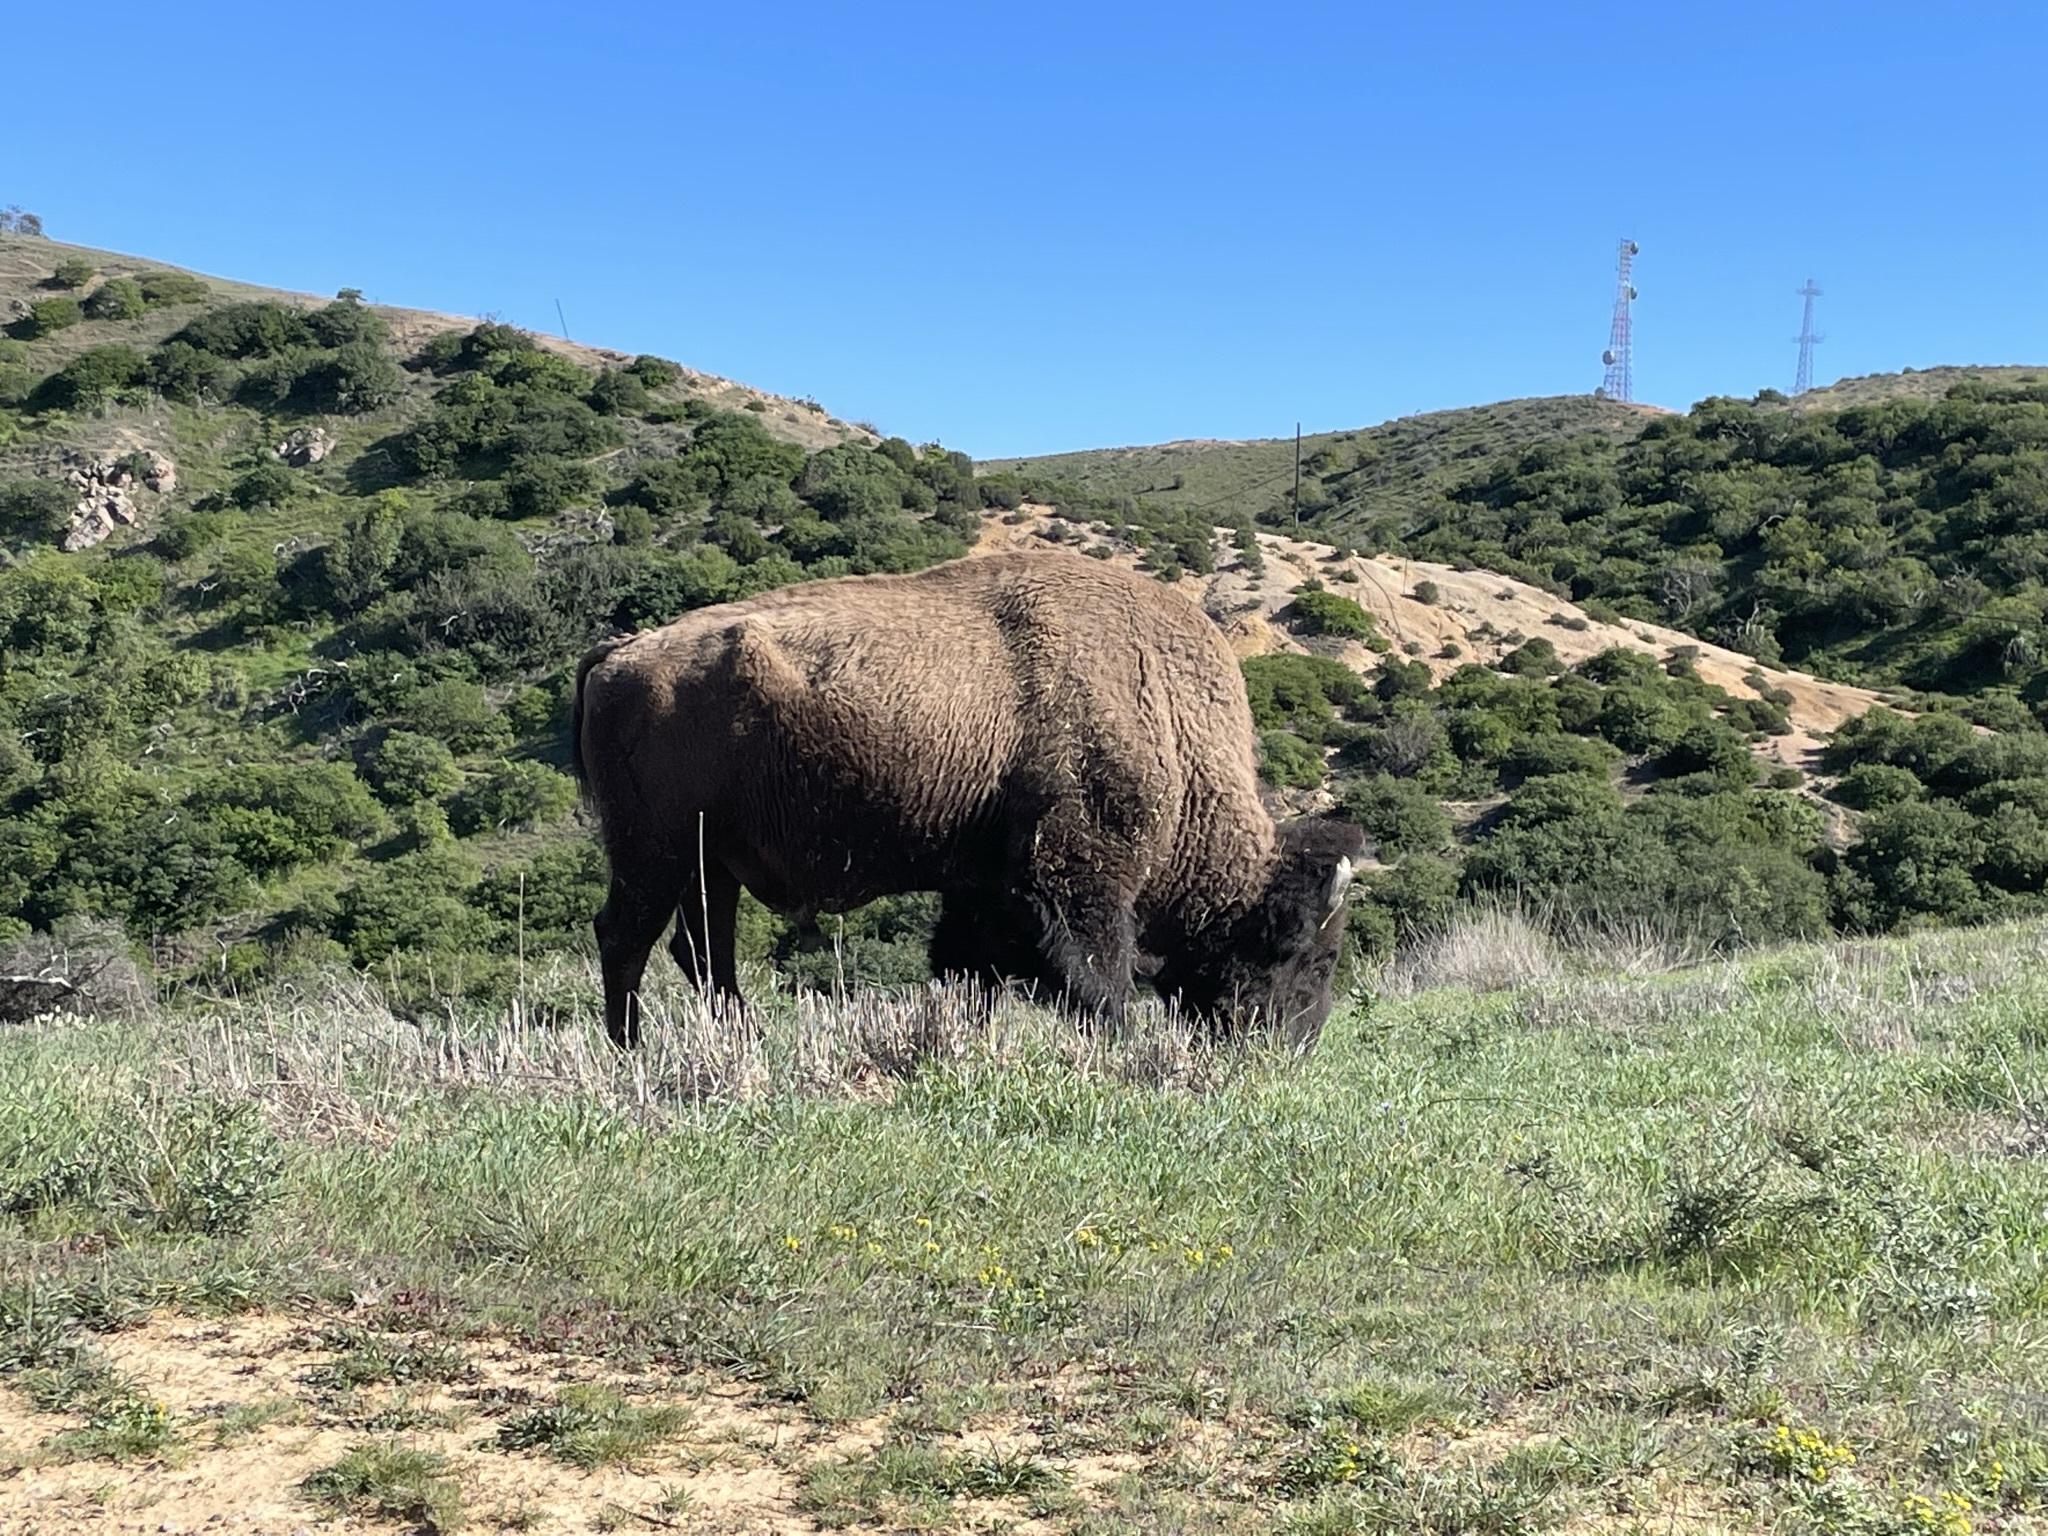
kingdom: Animalia
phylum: Chordata
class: Mammalia
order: Artiodactyla
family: Bovidae
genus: Bison
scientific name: Bison bison
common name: American bison
